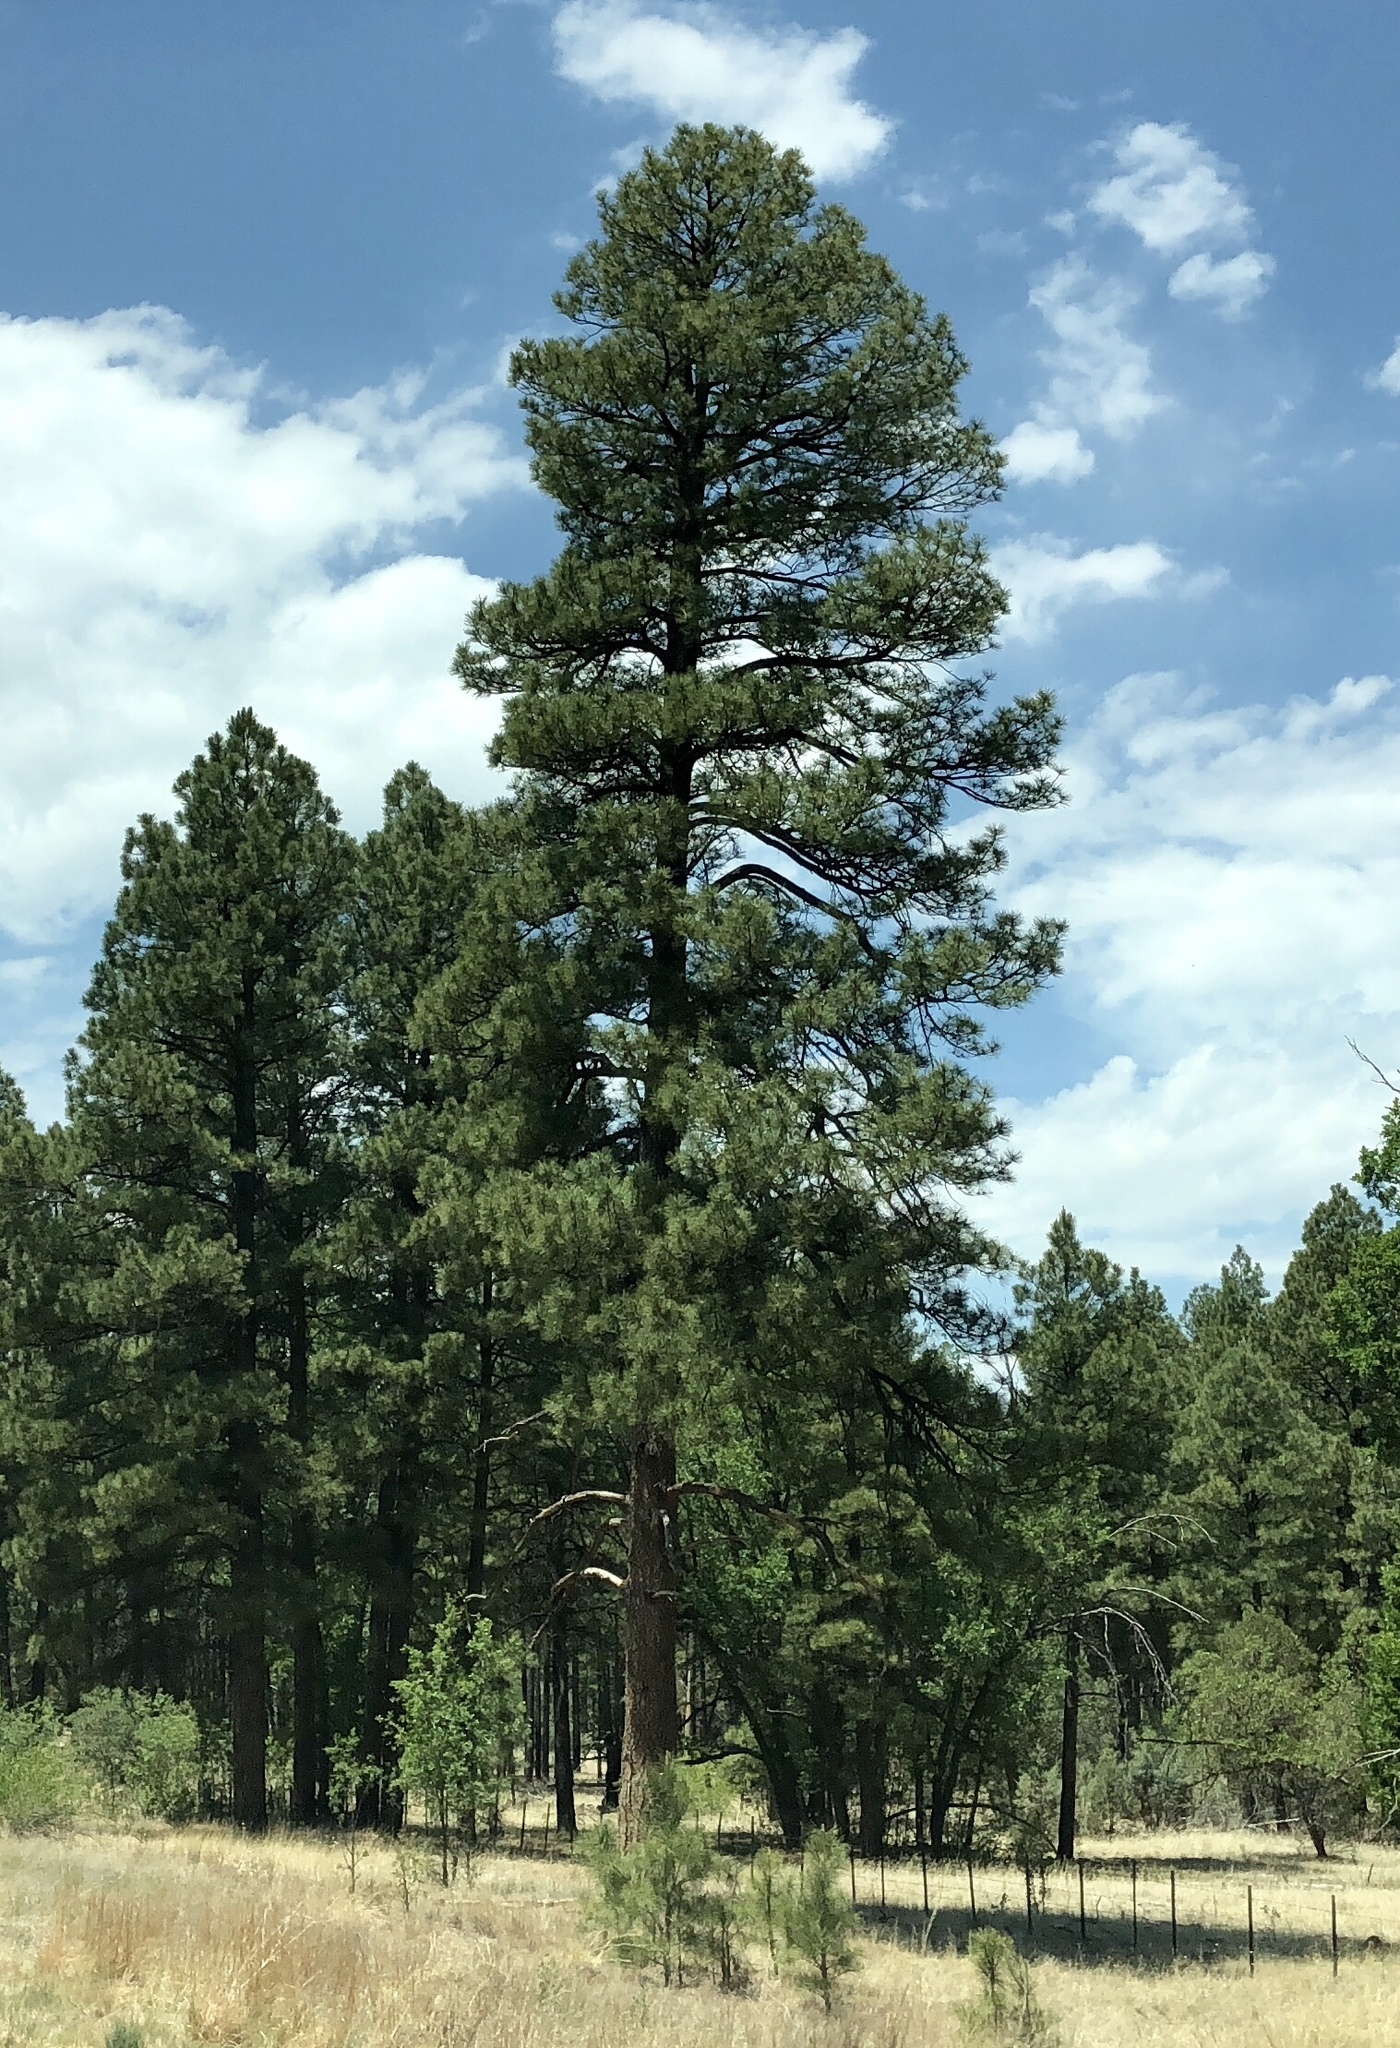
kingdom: Plantae
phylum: Tracheophyta
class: Pinopsida
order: Pinales
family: Pinaceae
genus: Pinus
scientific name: Pinus ponderosa
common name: Western yellow-pine
